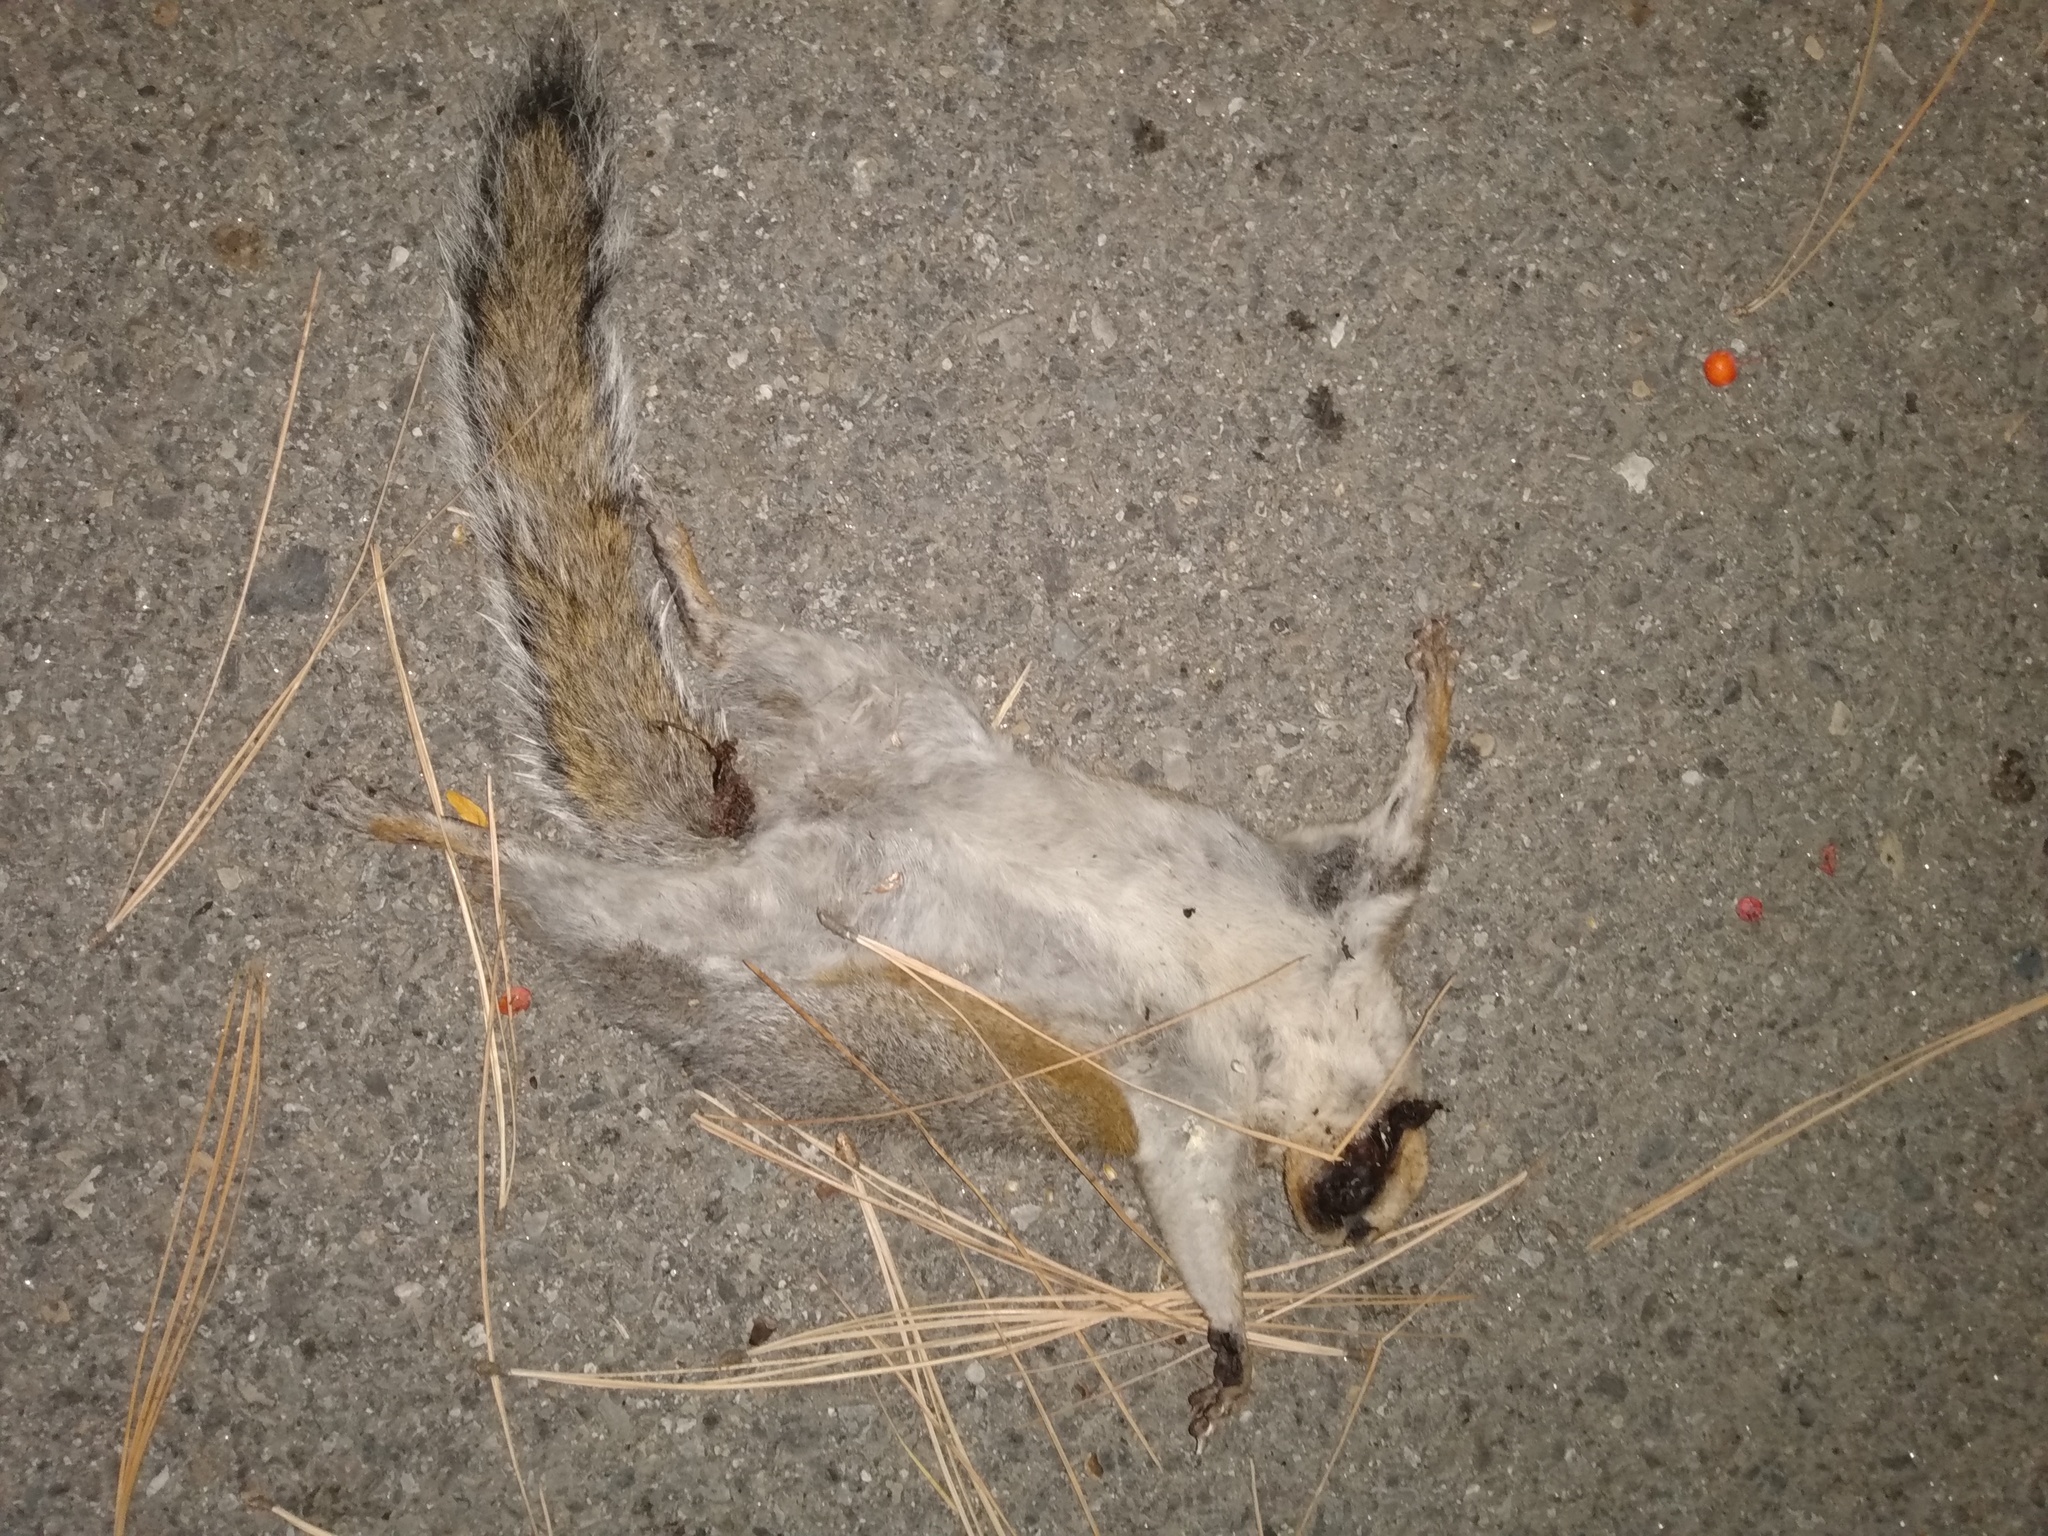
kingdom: Animalia
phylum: Chordata
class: Mammalia
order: Rodentia
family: Sciuridae
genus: Sciurus
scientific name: Sciurus carolinensis
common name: Eastern gray squirrel
